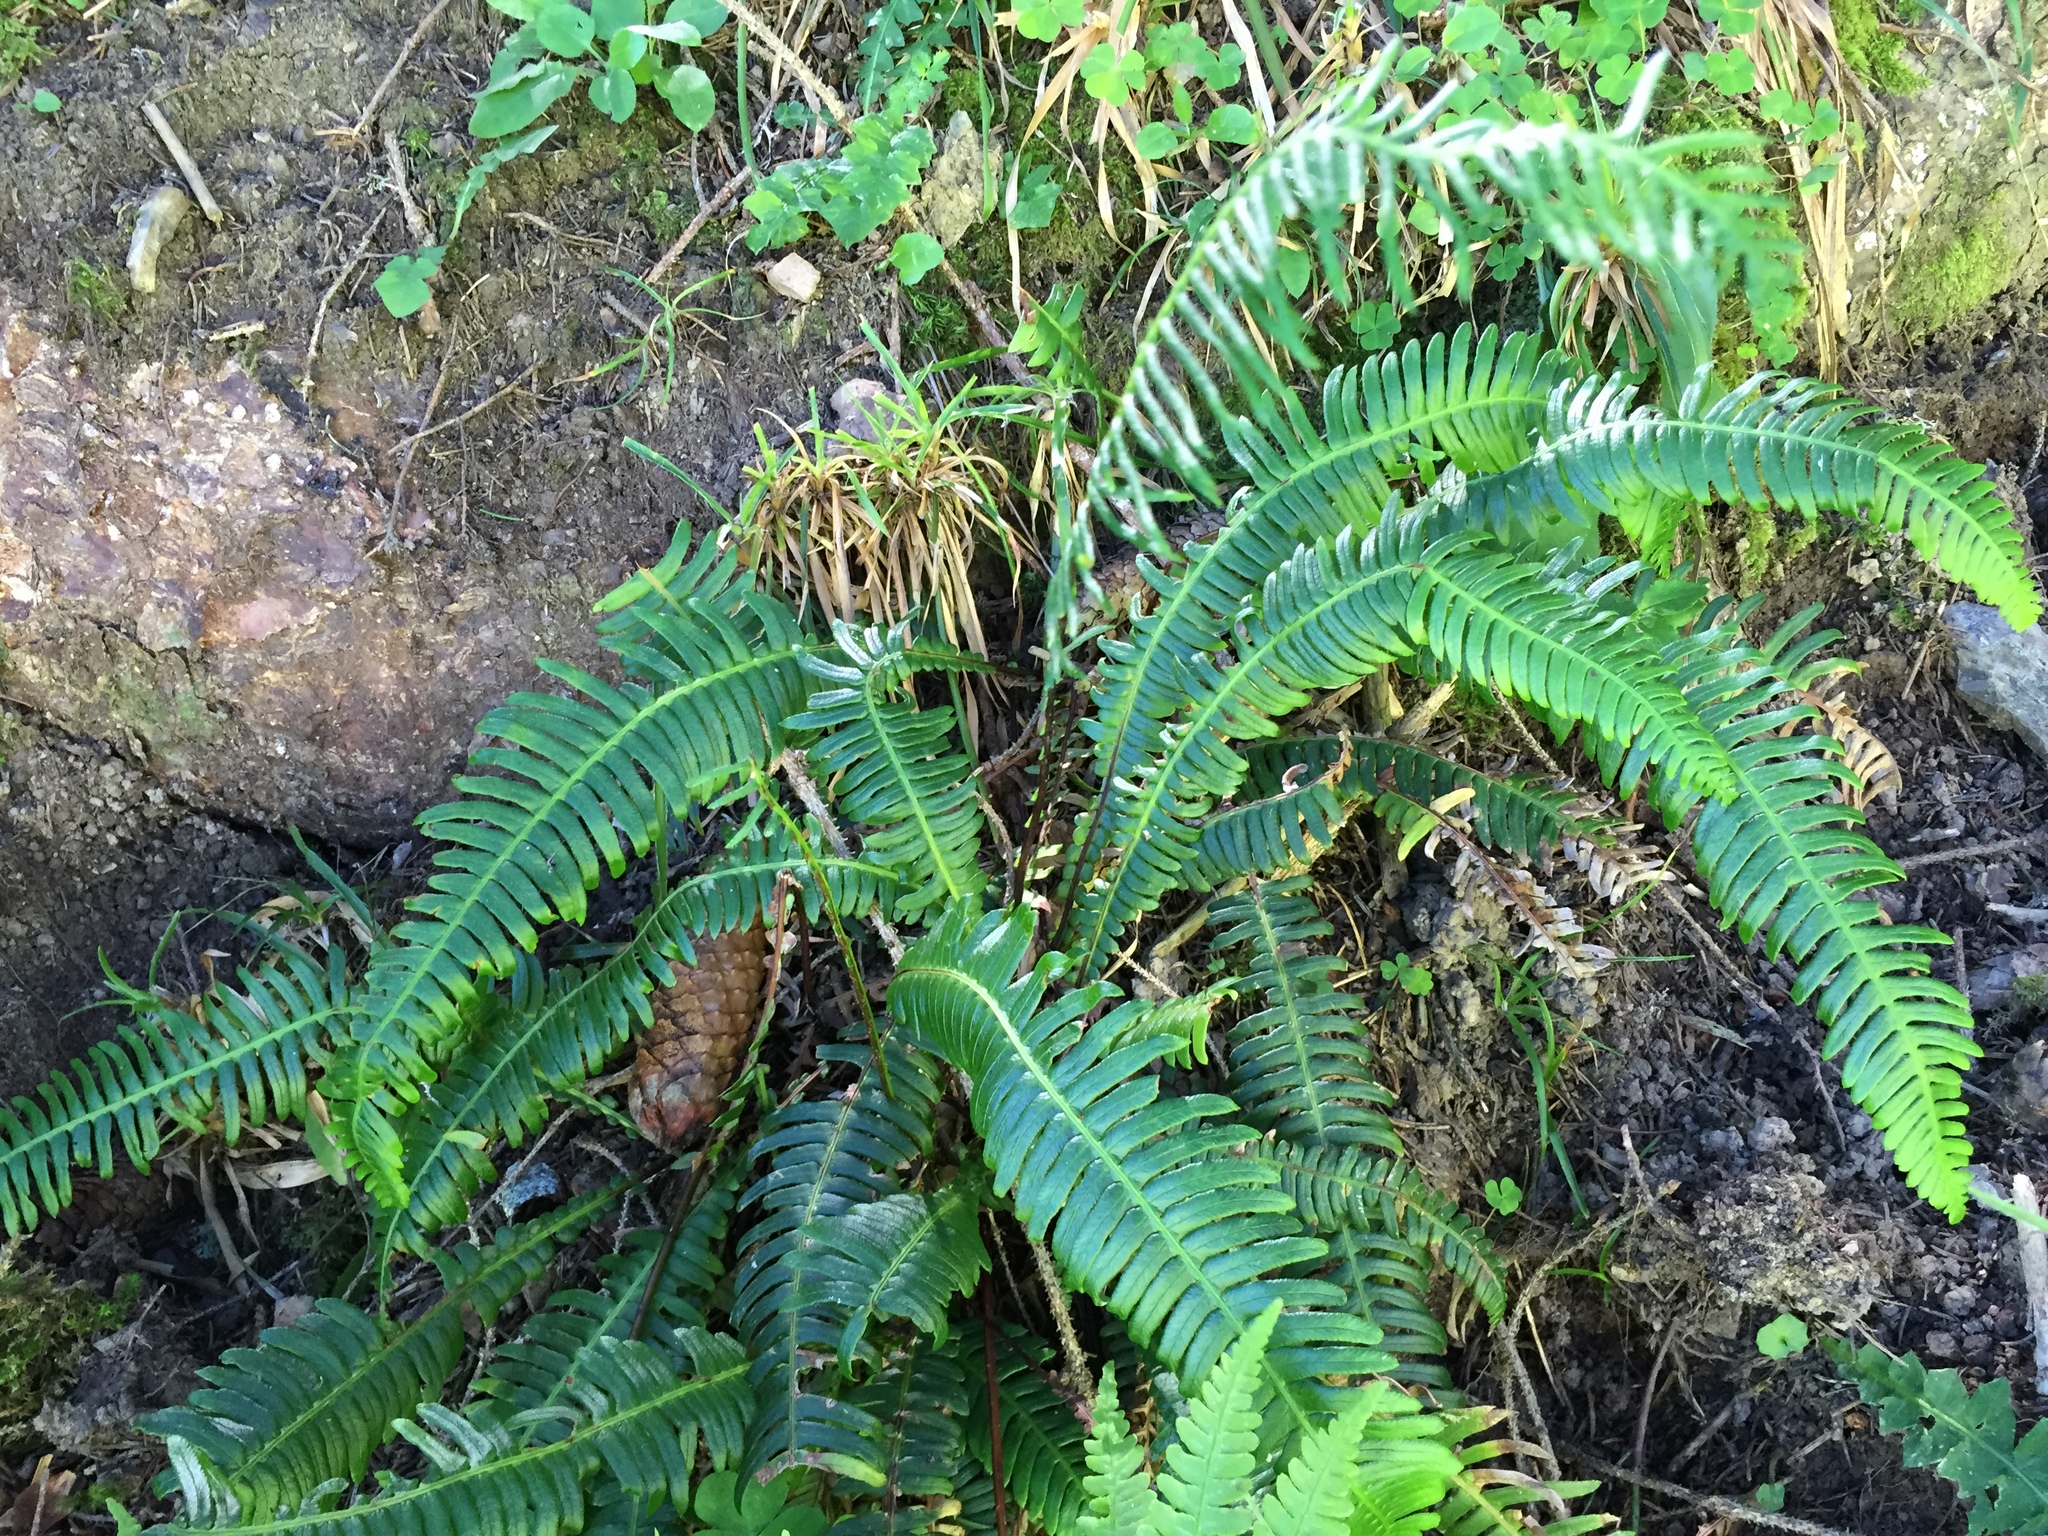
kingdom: Plantae
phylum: Tracheophyta
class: Polypodiopsida
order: Polypodiales
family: Blechnaceae
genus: Struthiopteris
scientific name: Struthiopteris spicant
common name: Deer fern
